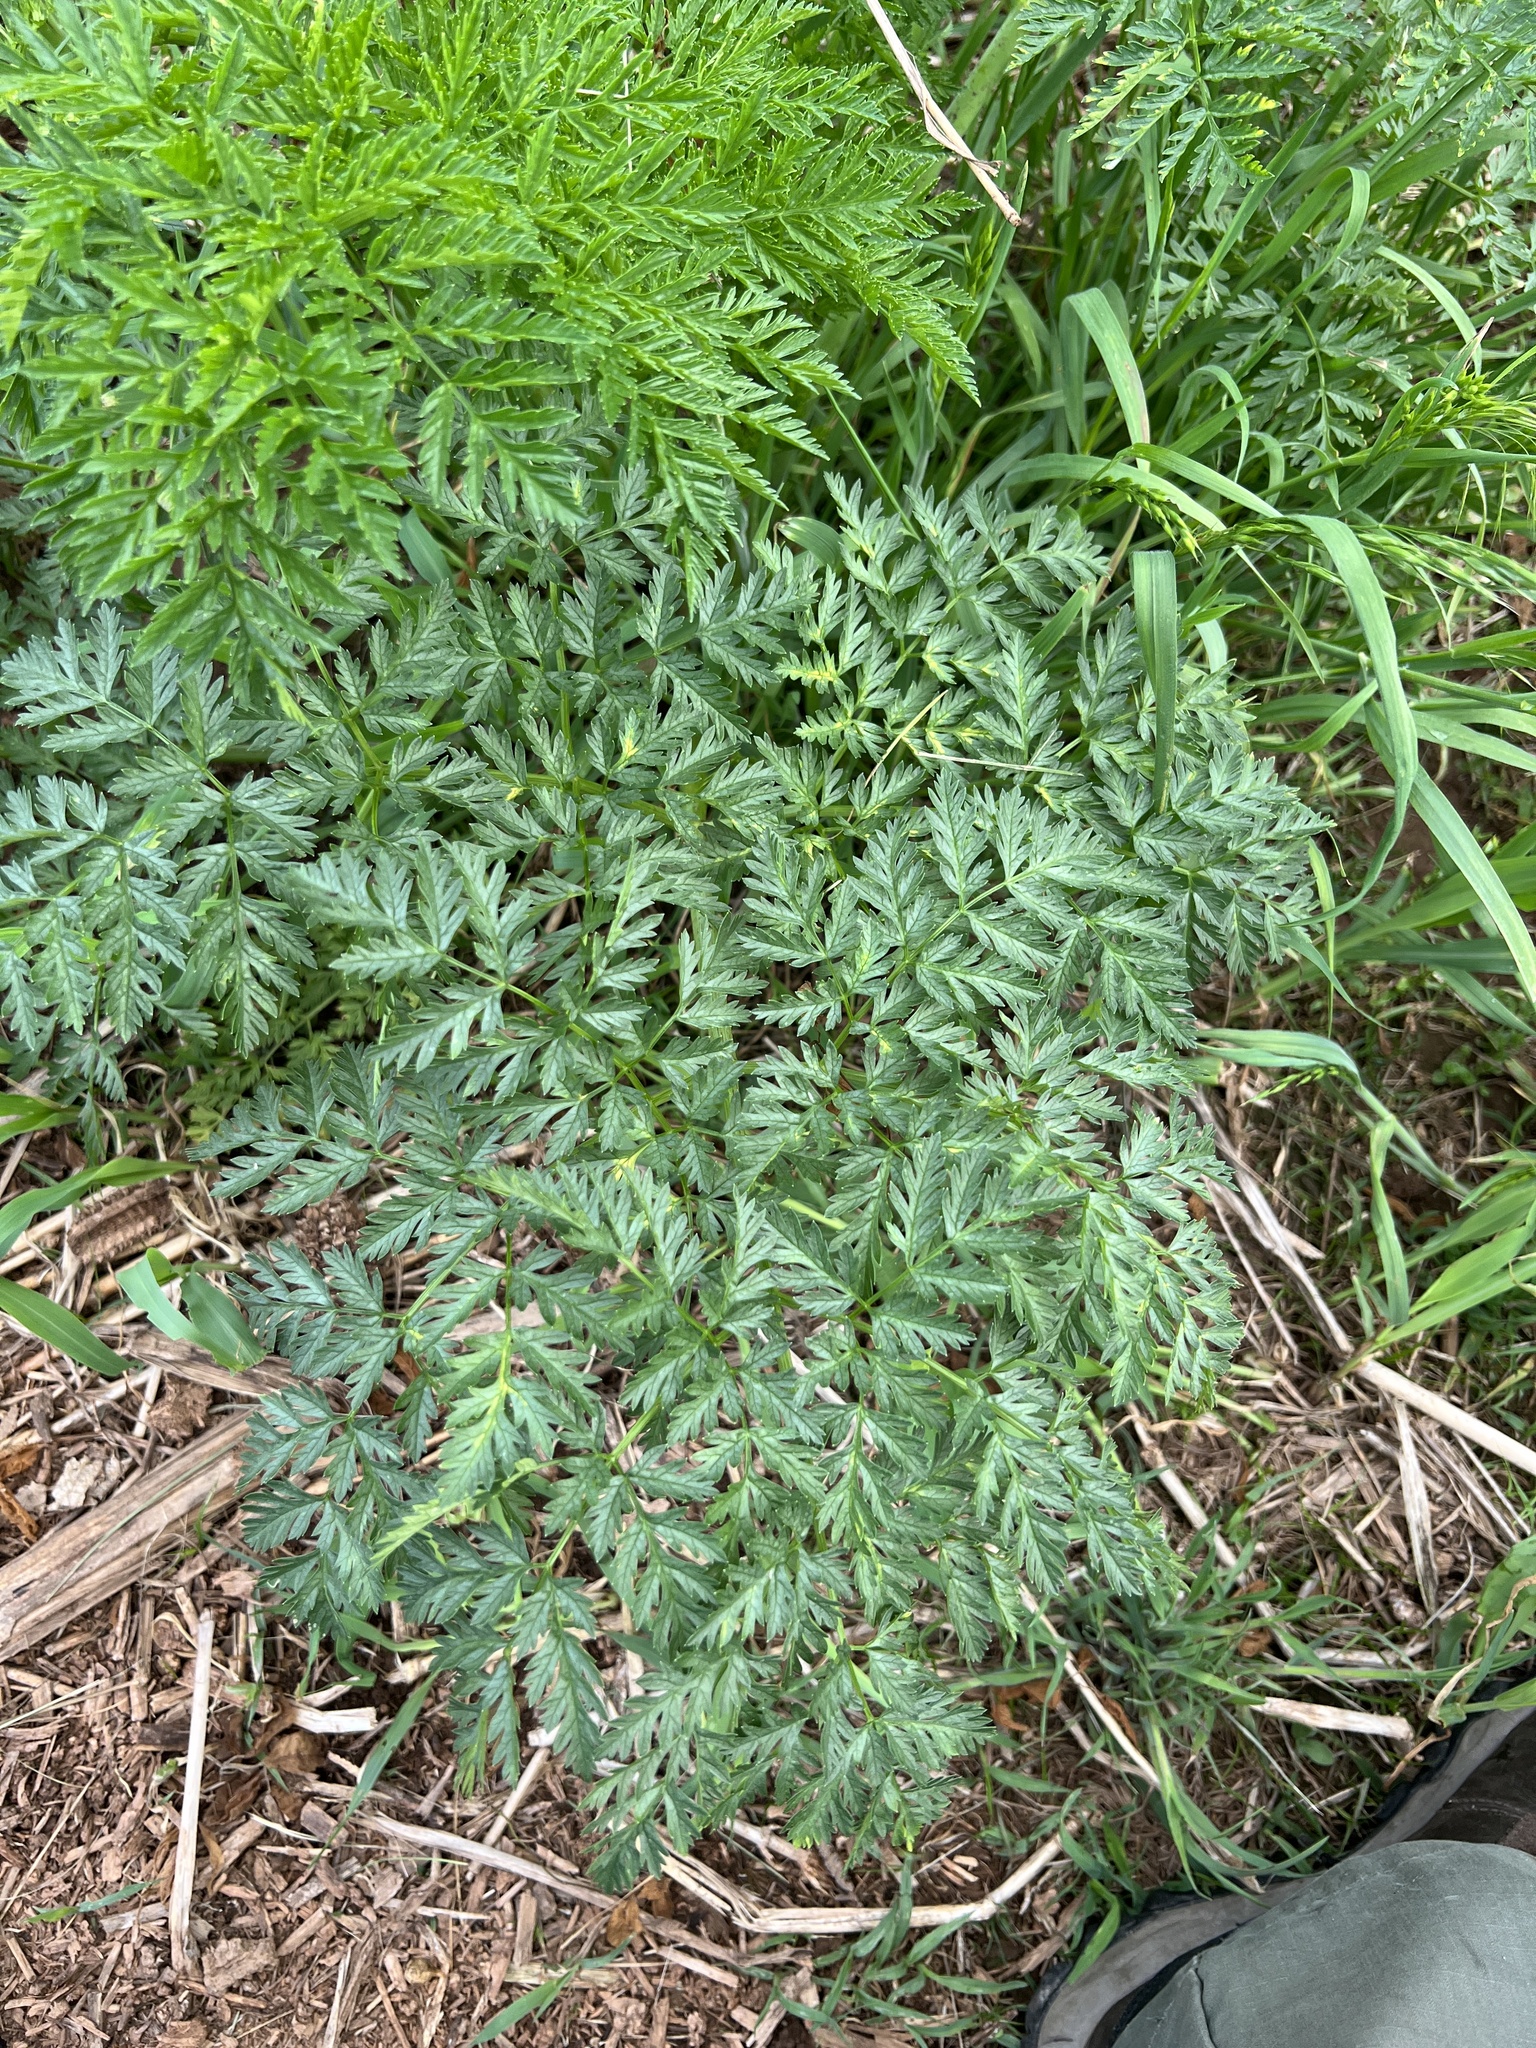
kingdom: Plantae
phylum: Tracheophyta
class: Magnoliopsida
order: Apiales
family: Apiaceae
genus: Conium
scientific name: Conium maculatum
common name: Hemlock
